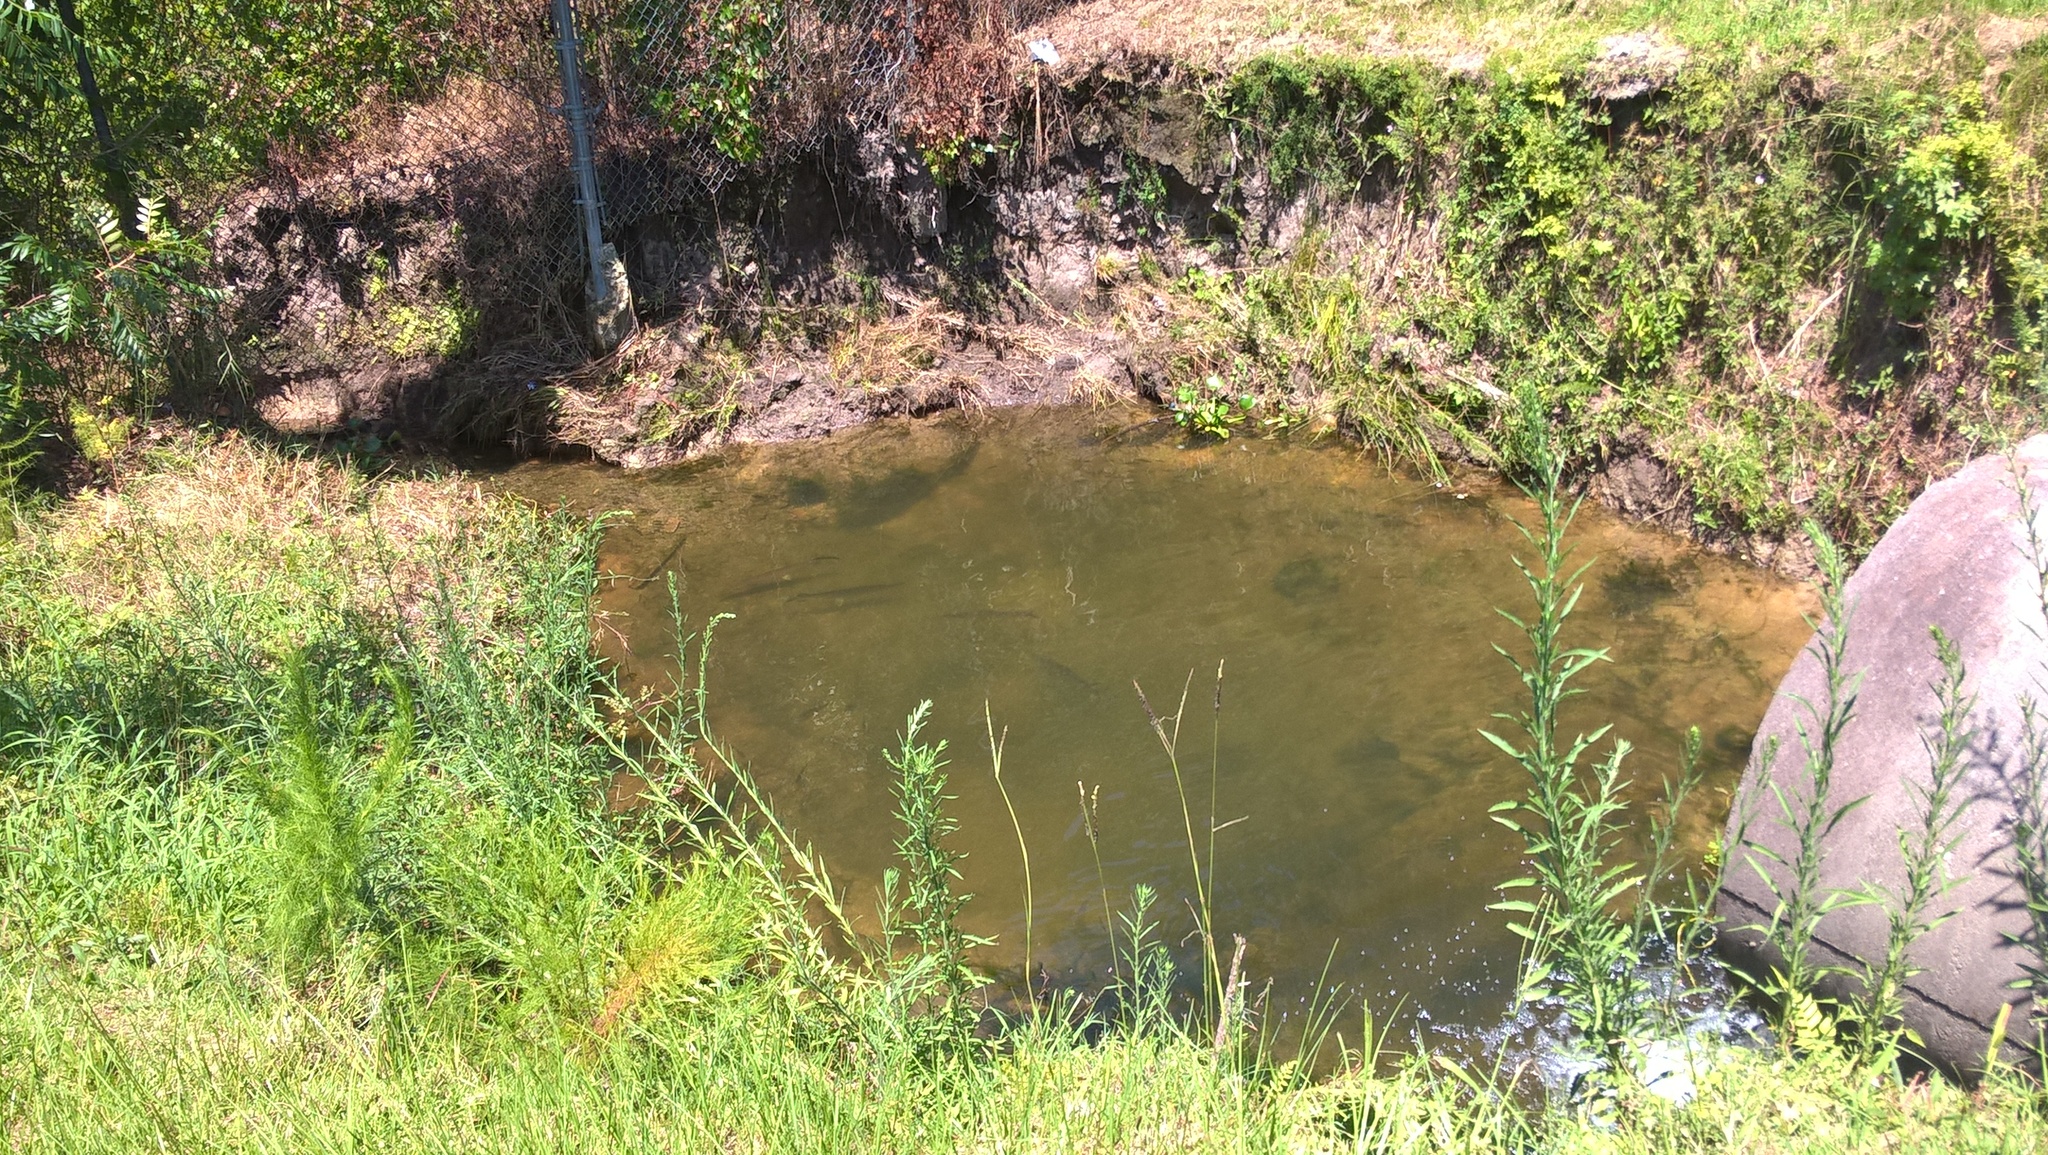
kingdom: Animalia
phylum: Chordata
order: Lepisosteiformes
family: Lepisosteidae
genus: Lepisosteus
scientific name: Lepisosteus platyrhincus
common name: Florida gar
